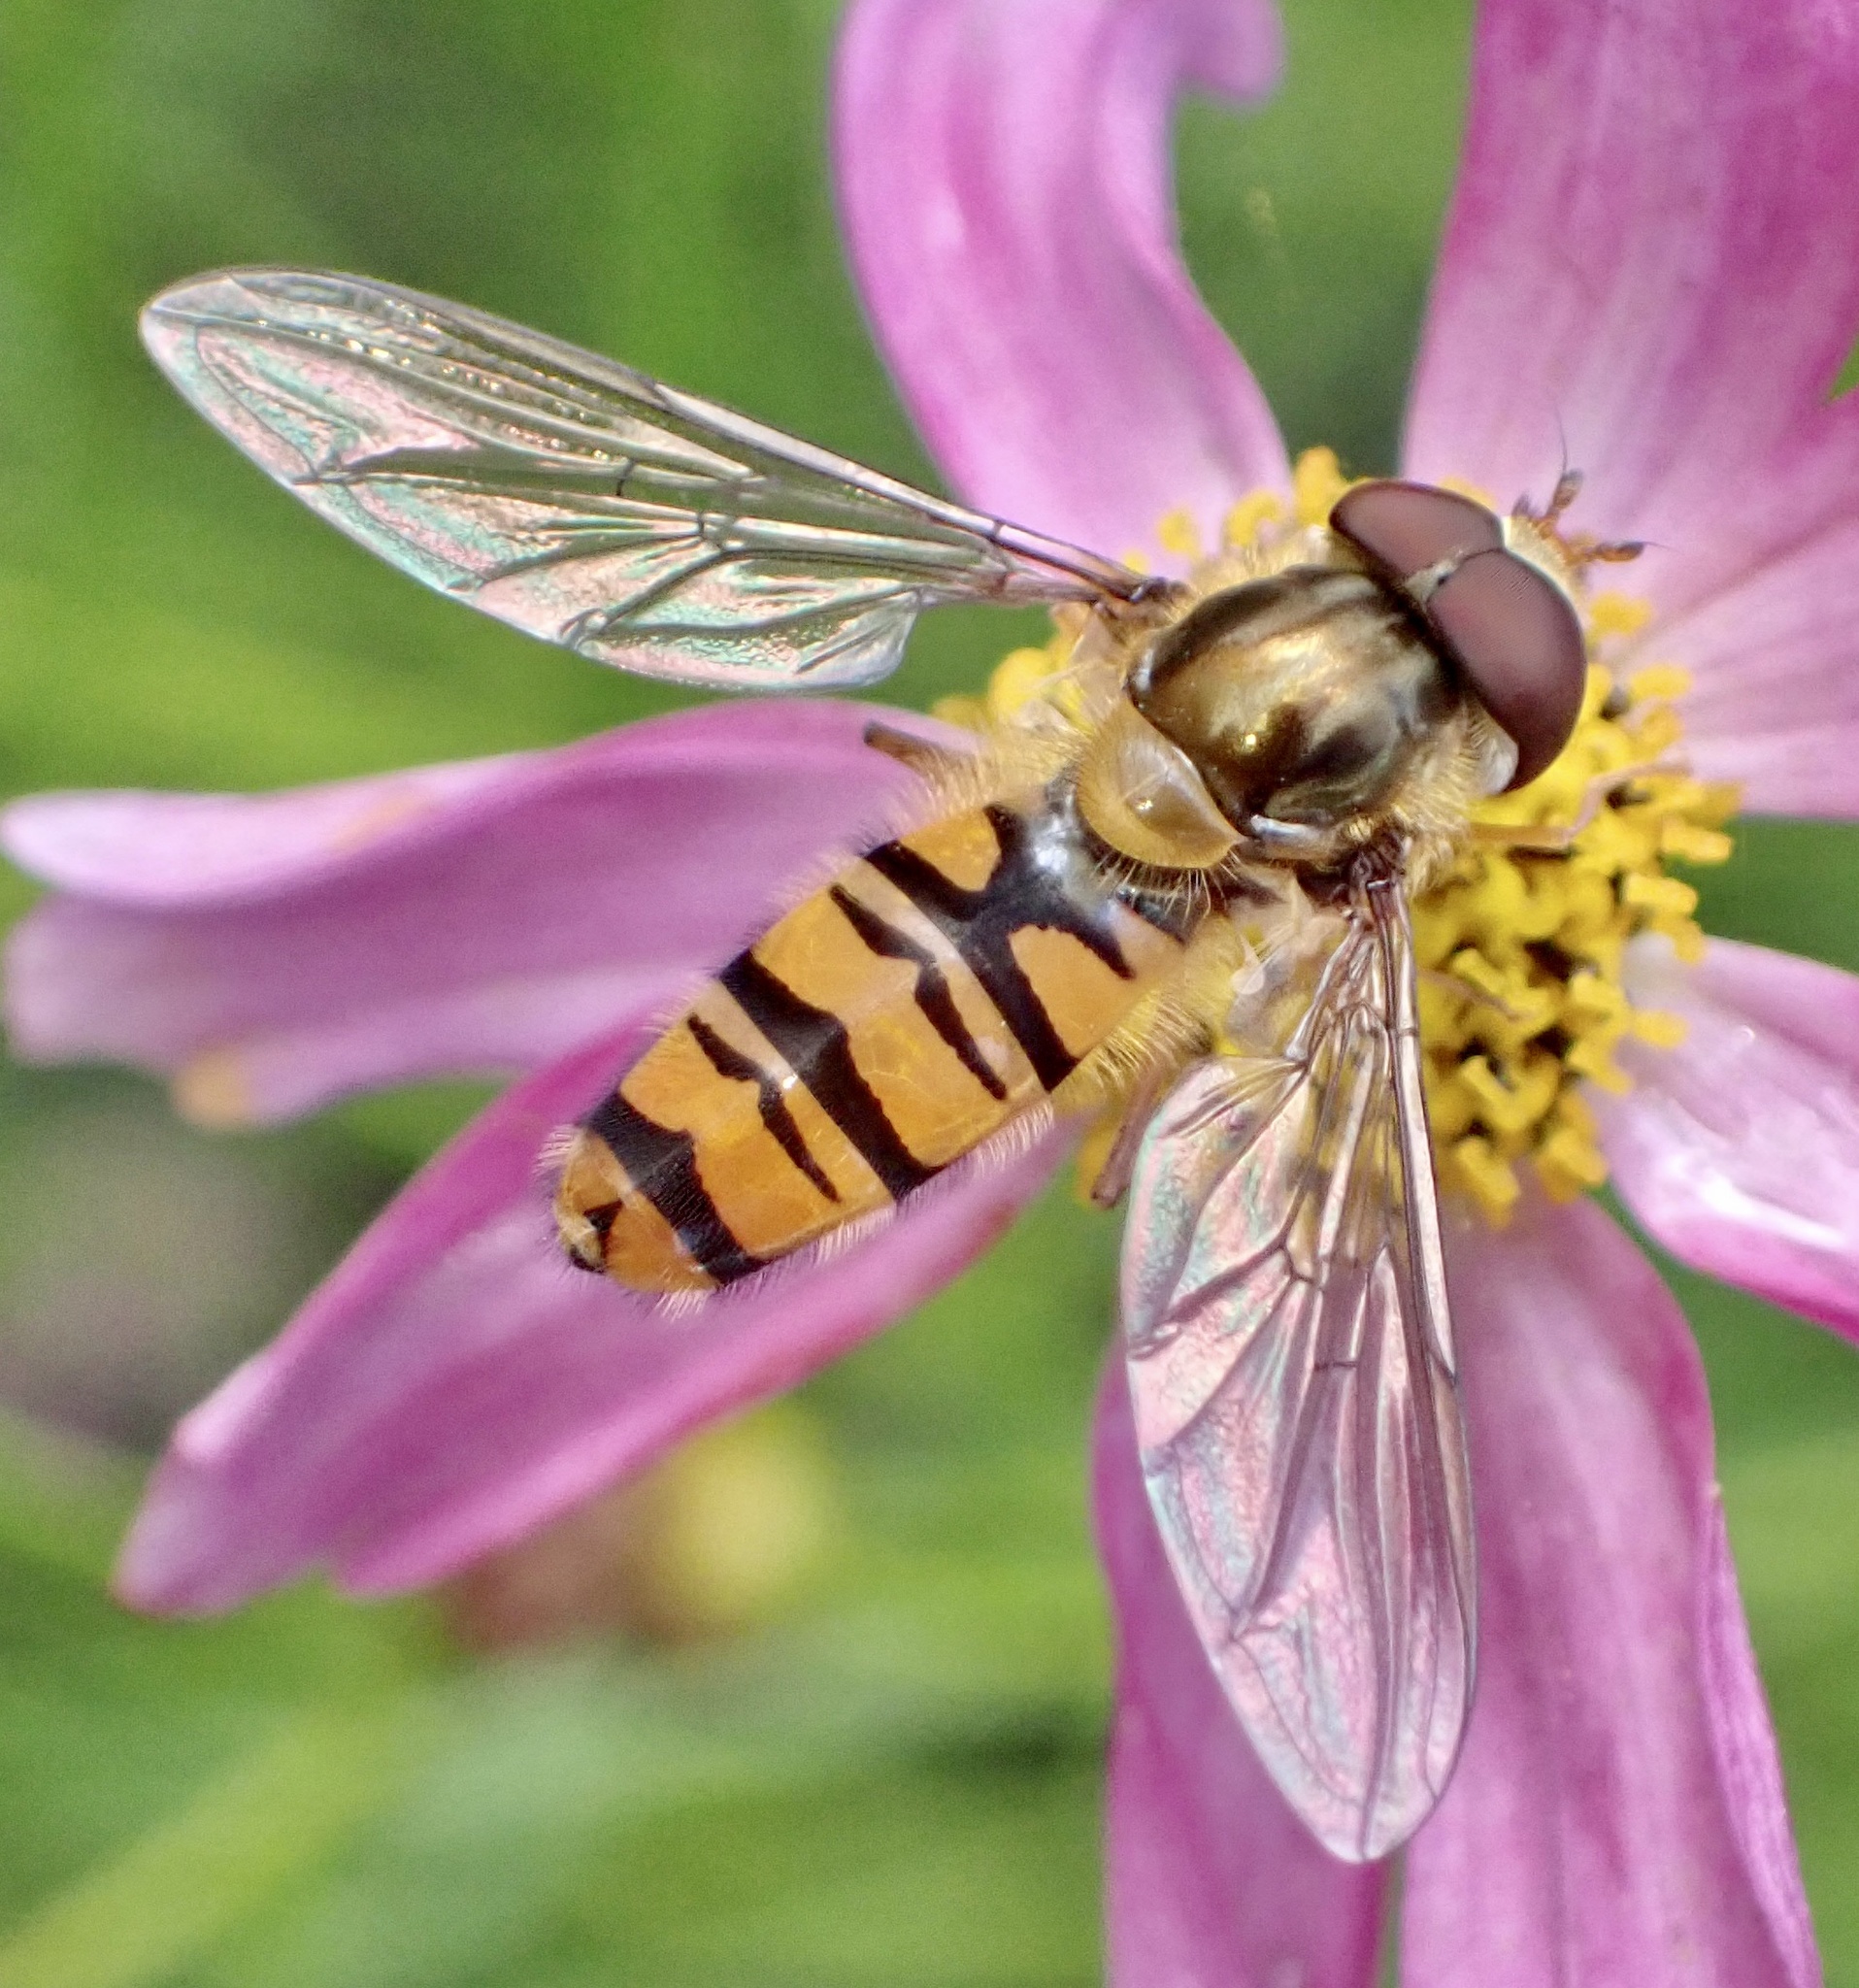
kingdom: Animalia
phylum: Arthropoda
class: Insecta
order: Diptera
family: Syrphidae
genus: Episyrphus
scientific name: Episyrphus balteatus
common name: Marmalade hoverfly
